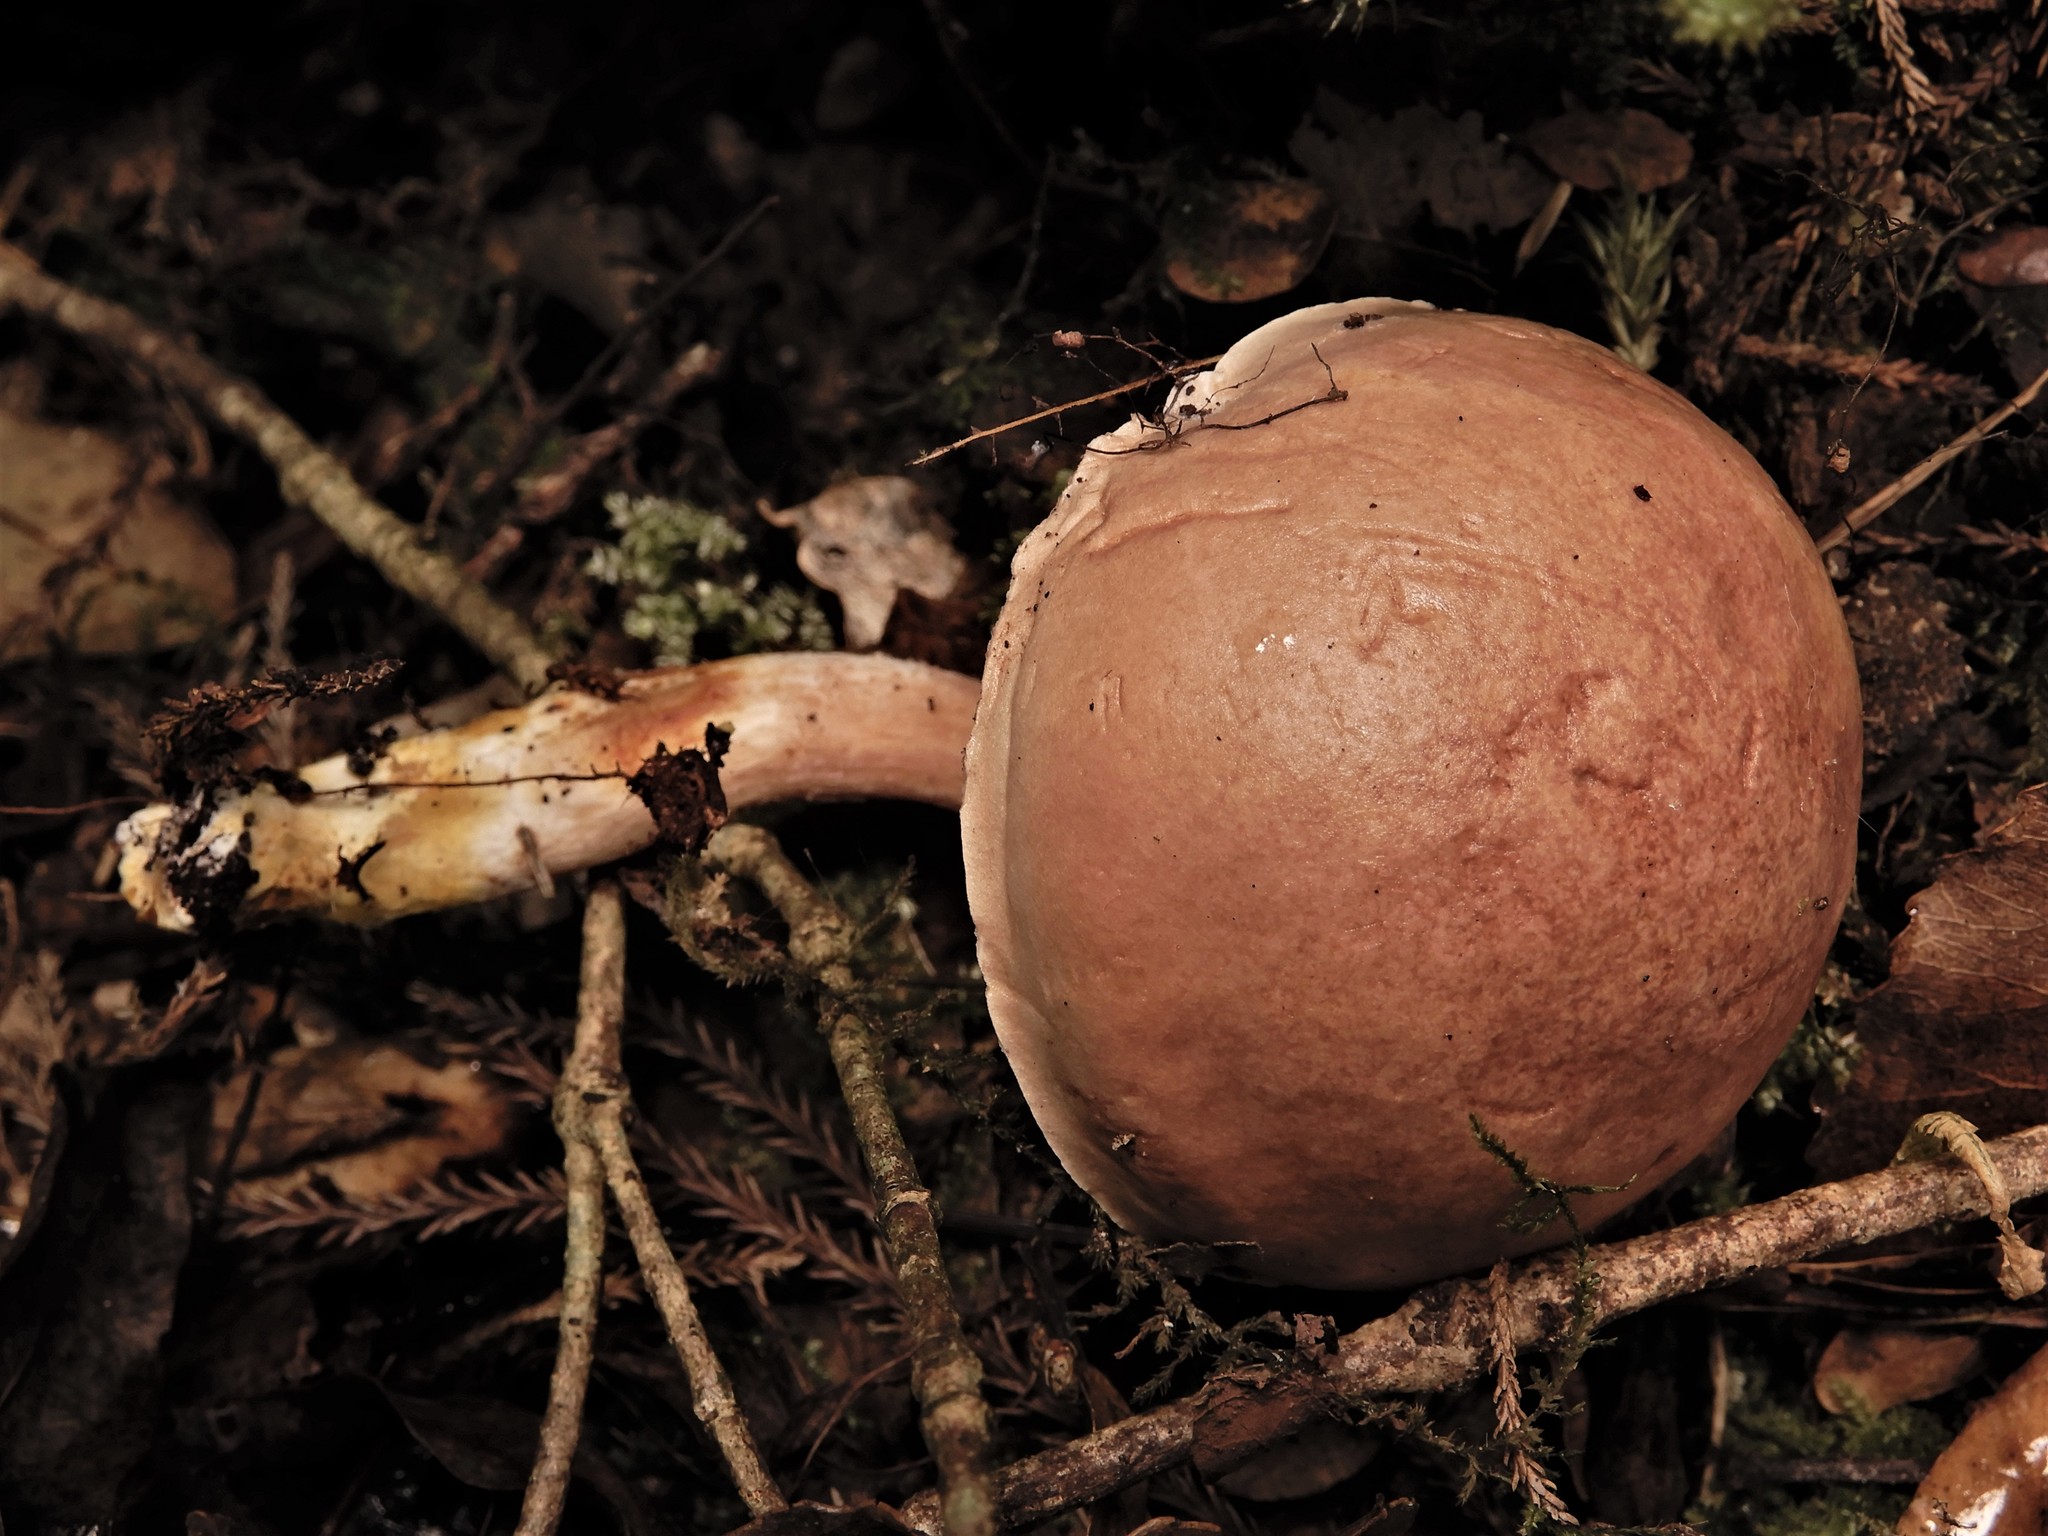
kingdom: Fungi
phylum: Basidiomycota
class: Agaricomycetes
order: Boletales
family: Boletaceae
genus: Fistulinella
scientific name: Fistulinella violaceipora
